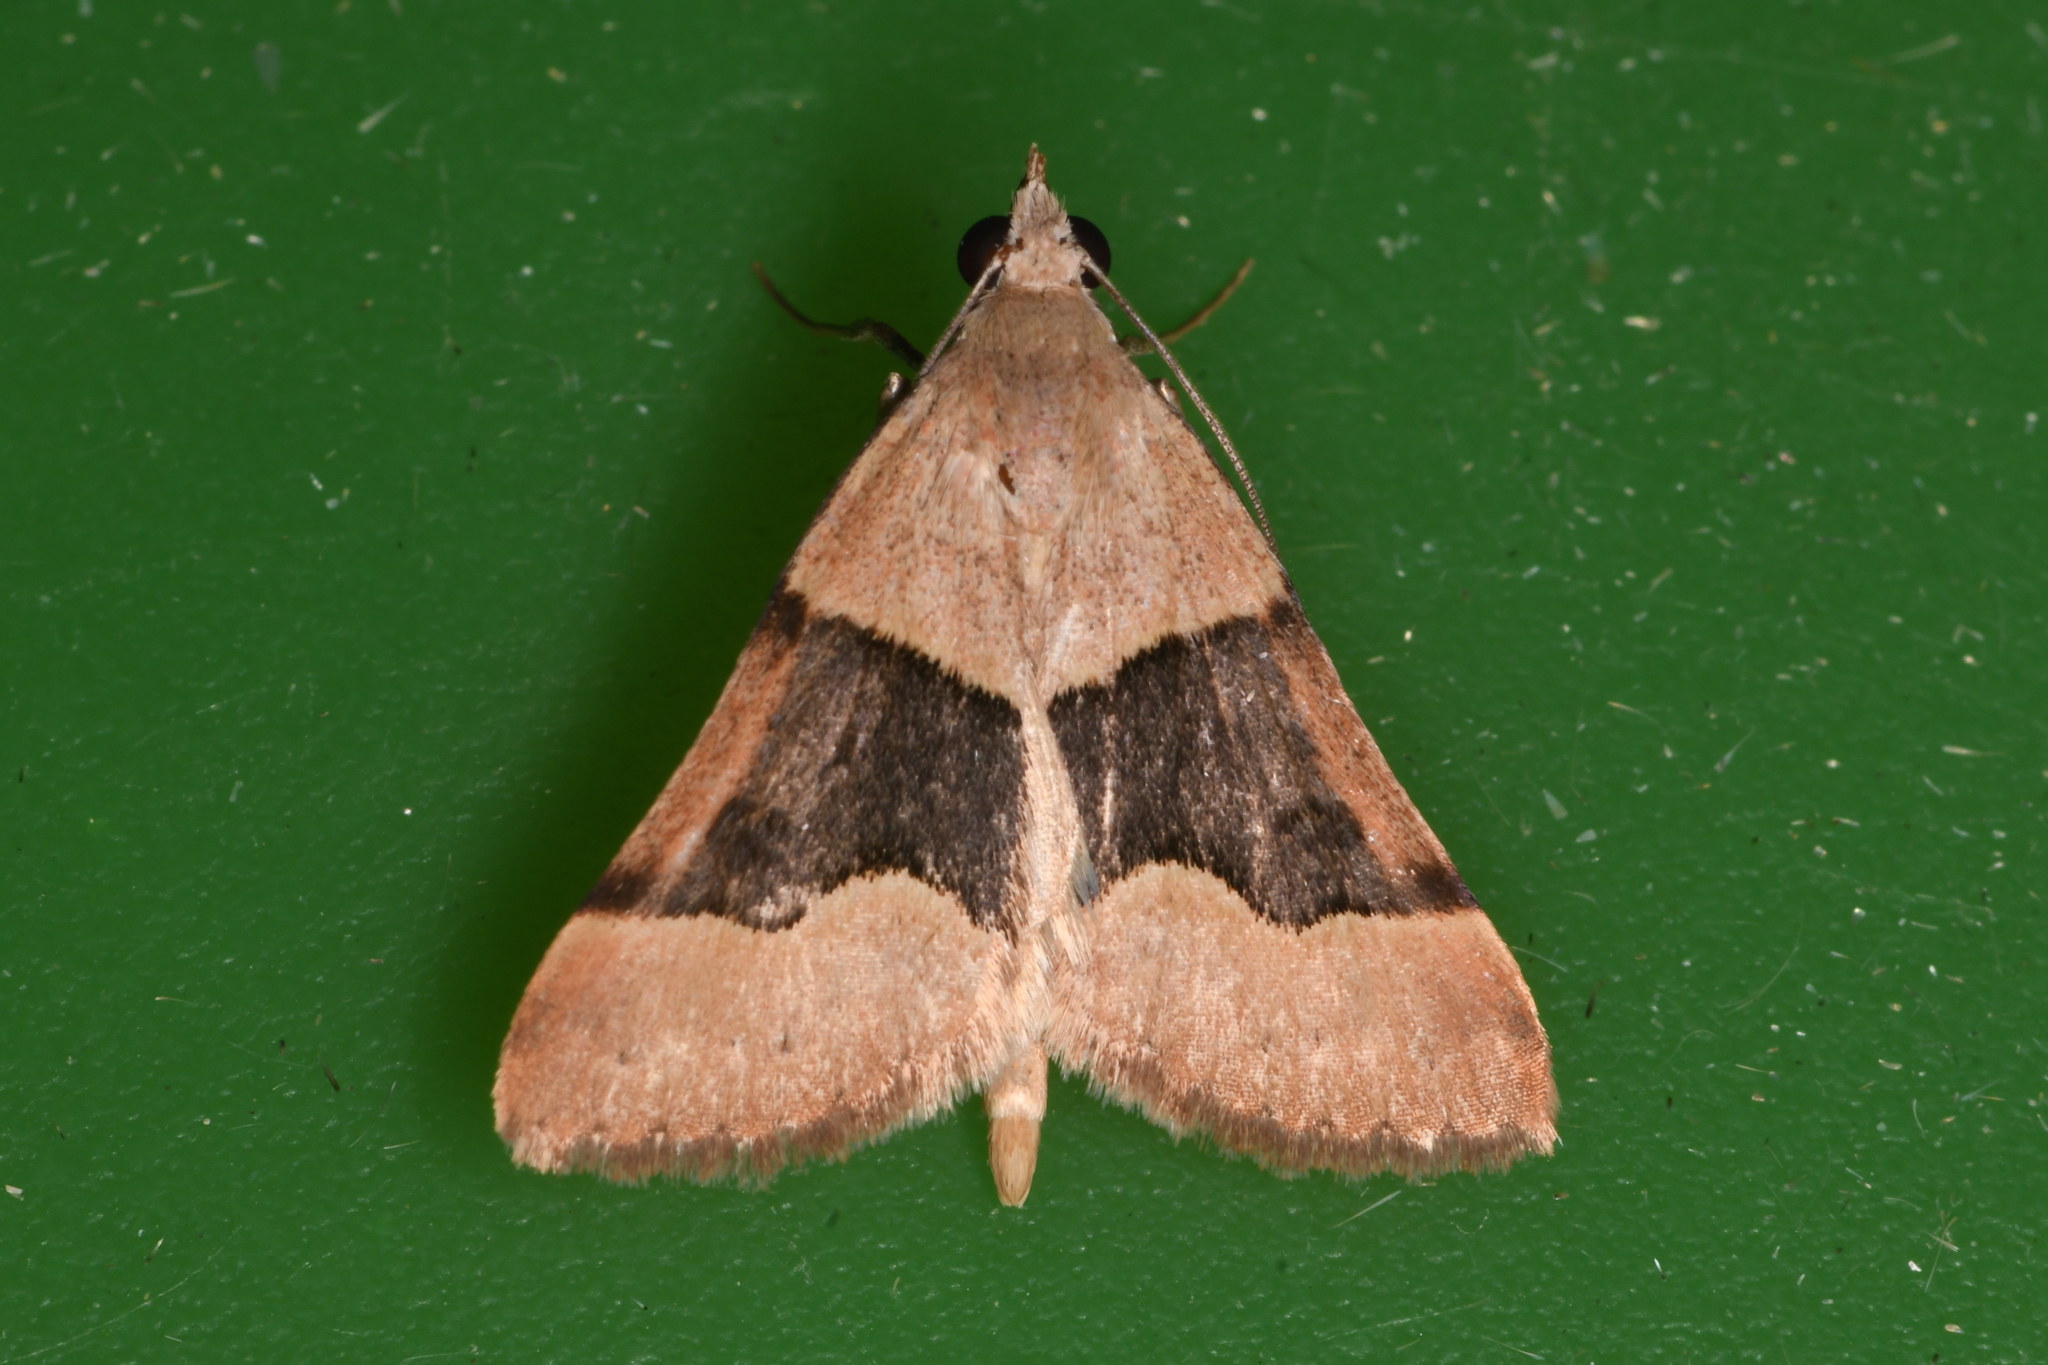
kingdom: Animalia
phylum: Arthropoda
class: Insecta
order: Lepidoptera
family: Erebidae
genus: Hemeroplanis
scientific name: Hemeroplanis incusalis
